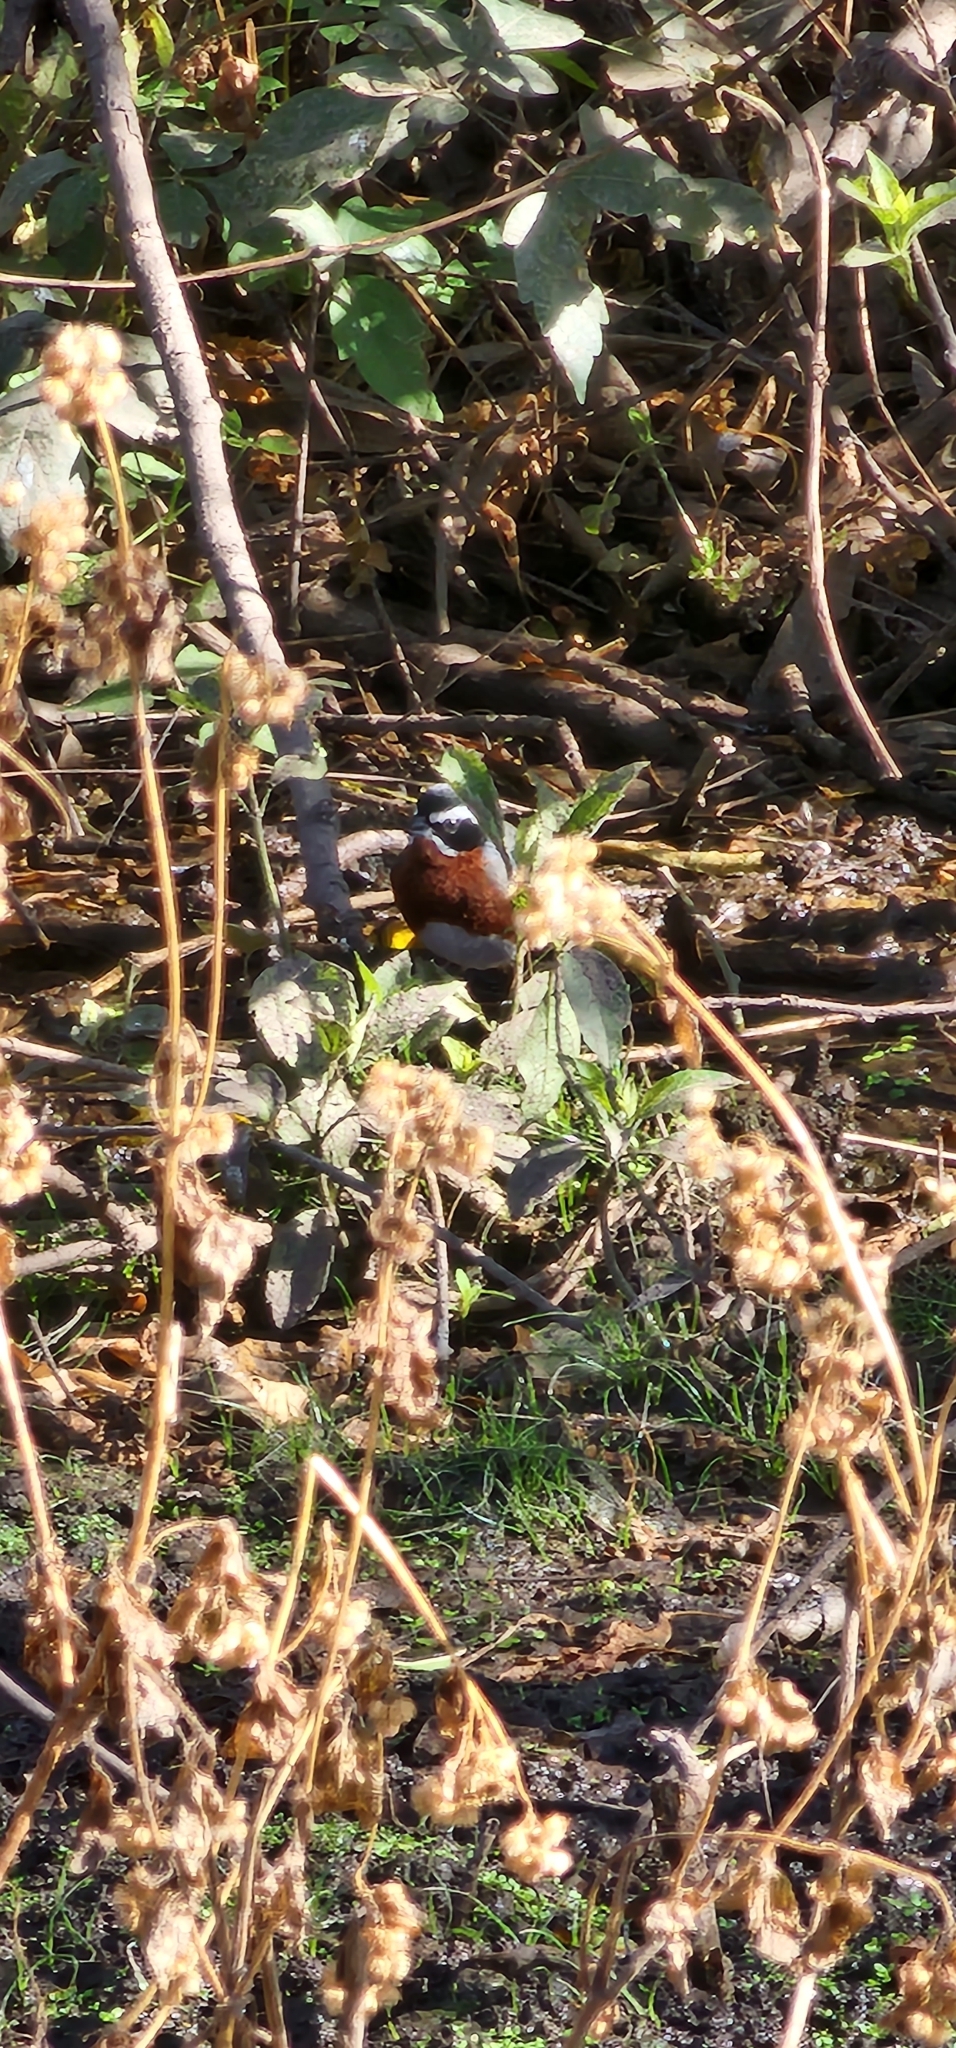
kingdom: Animalia
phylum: Chordata
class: Aves
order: Passeriformes
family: Thraupidae
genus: Poospiza
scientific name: Poospiza whitii
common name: Black-and-chestnut warbling finch
